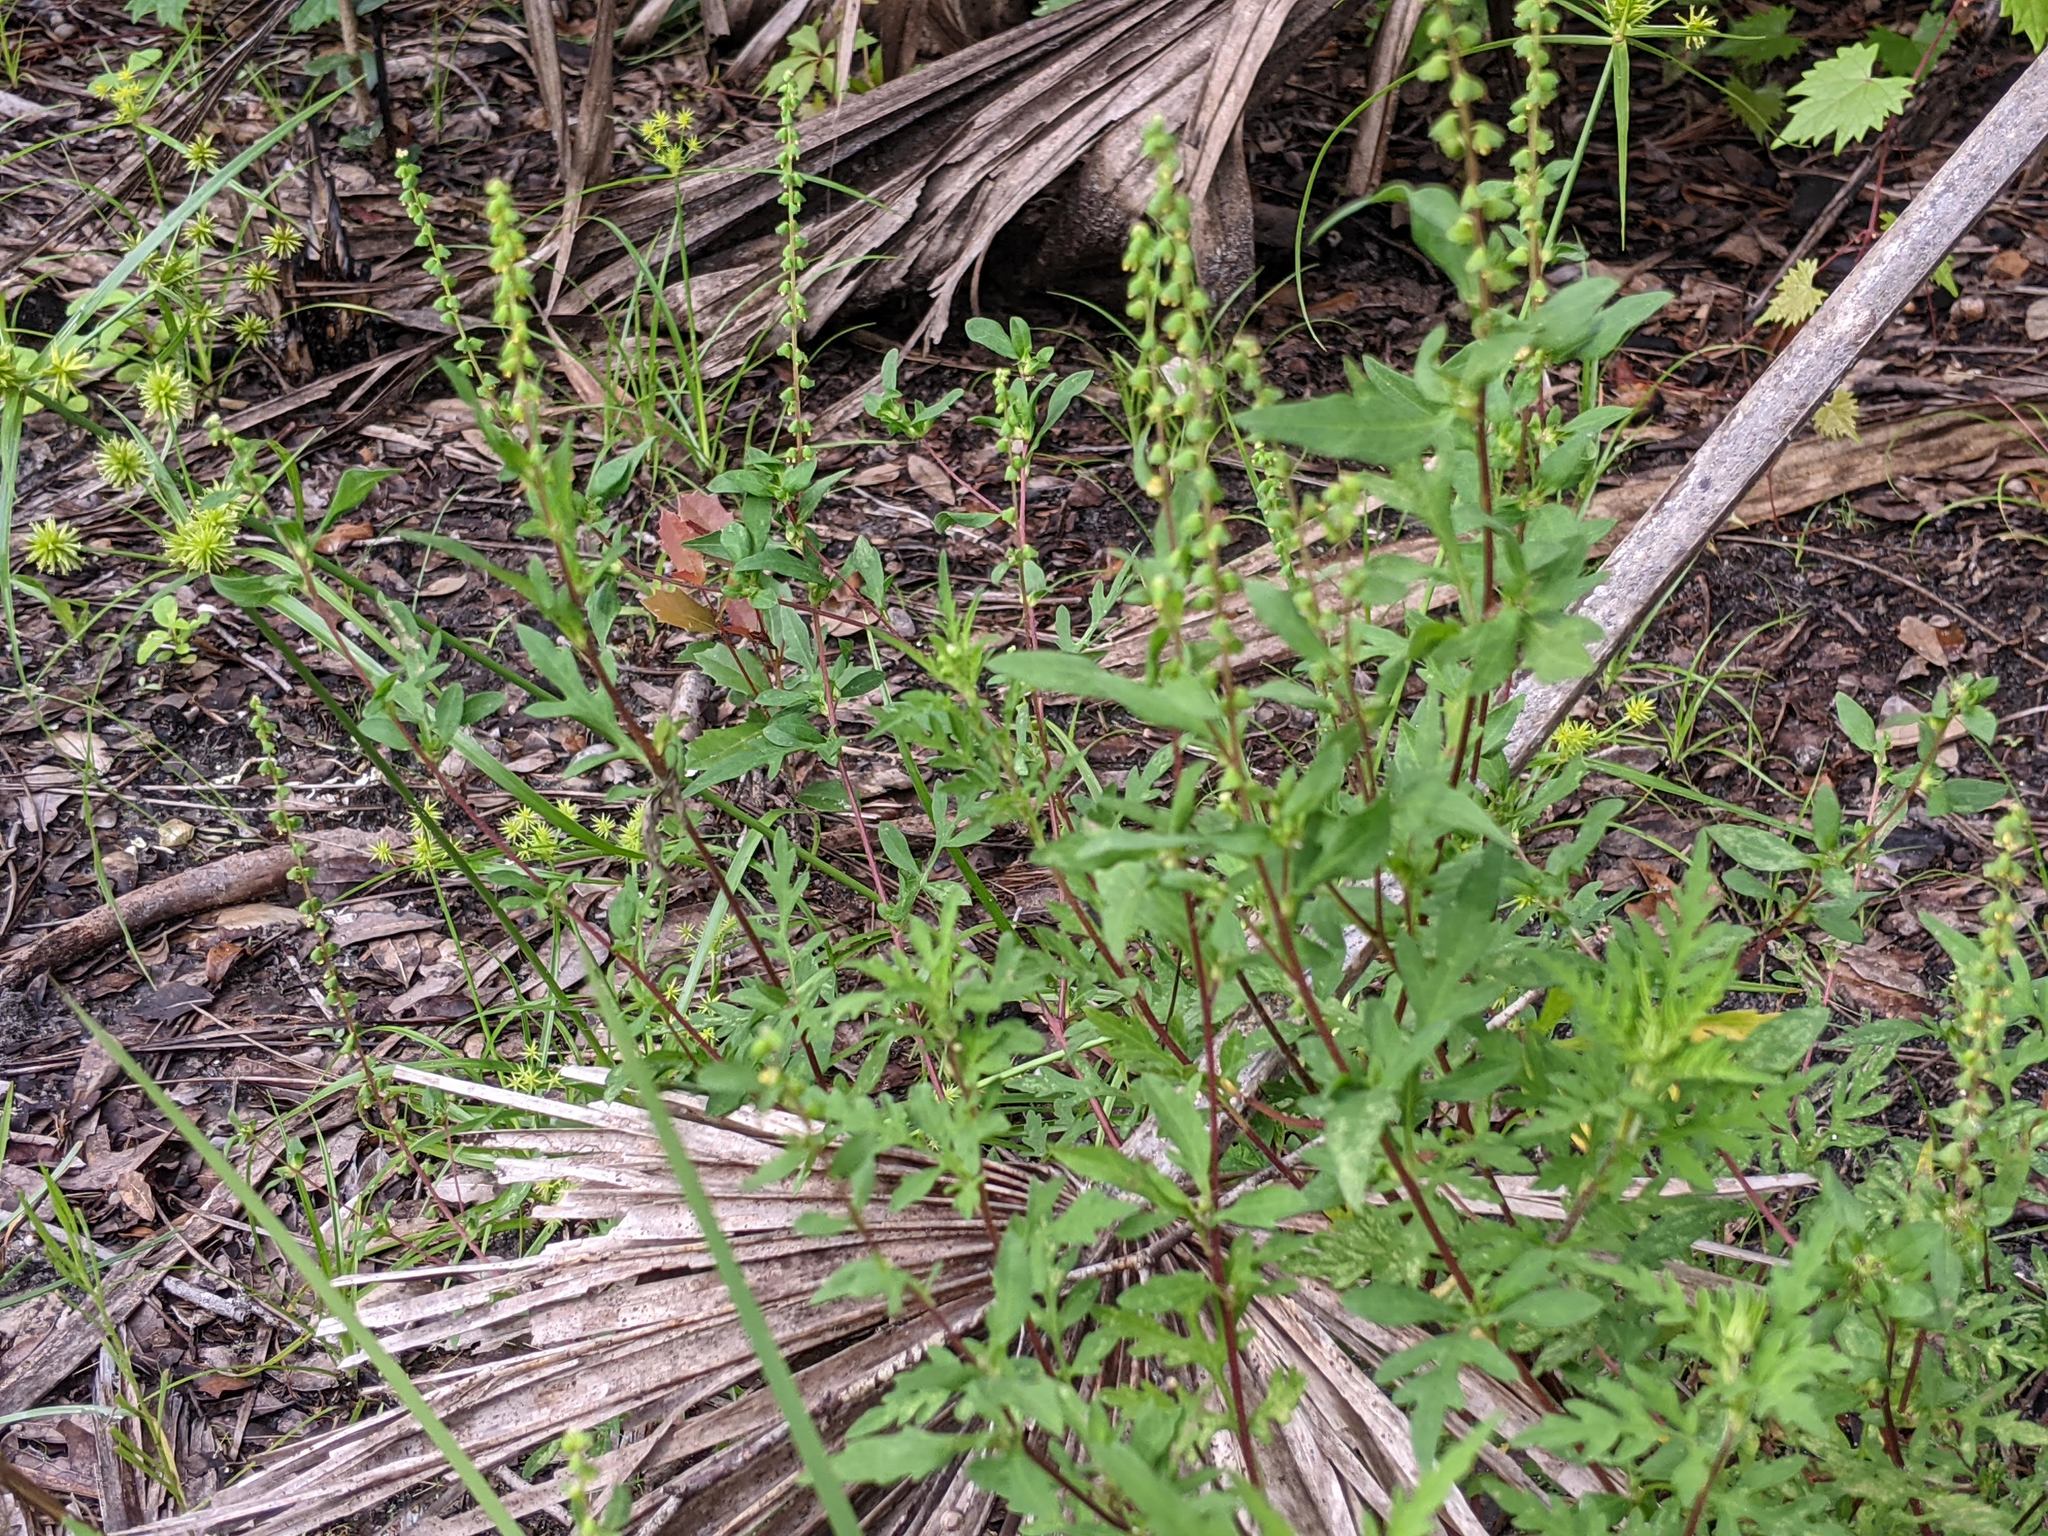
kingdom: Plantae
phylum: Tracheophyta
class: Magnoliopsida
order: Asterales
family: Asteraceae
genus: Ambrosia
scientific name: Ambrosia artemisiifolia
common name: Annual ragweed
